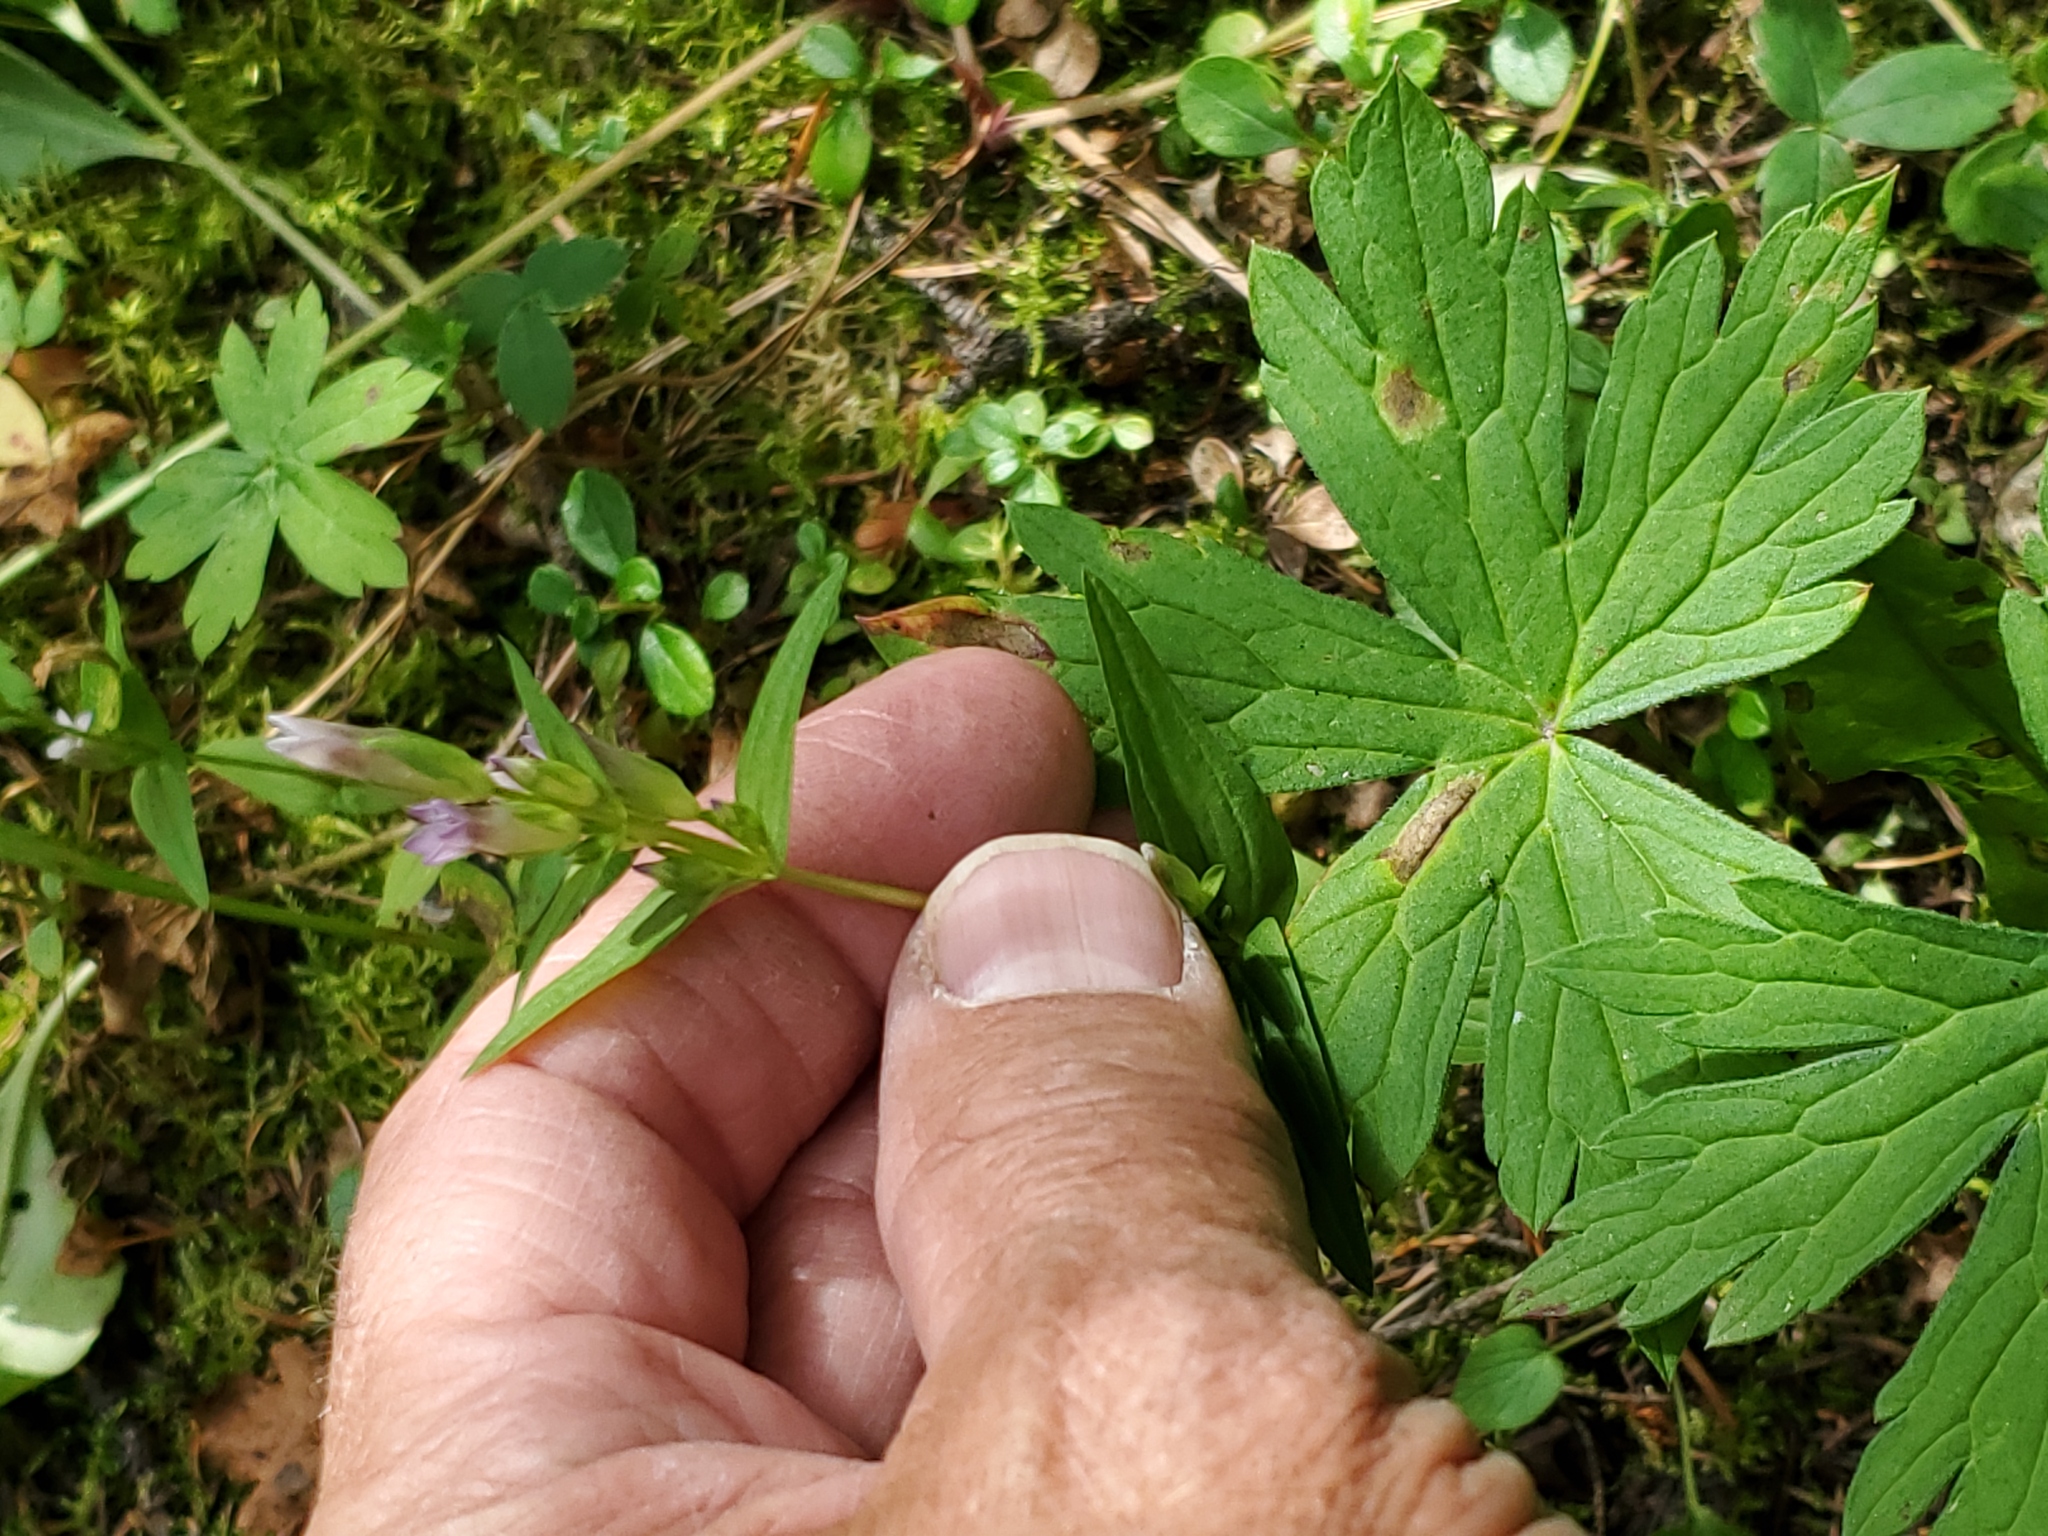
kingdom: Plantae
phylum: Tracheophyta
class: Magnoliopsida
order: Gentianales
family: Gentianaceae
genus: Gentianella
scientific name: Gentianella amarella
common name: Autumn gentian
